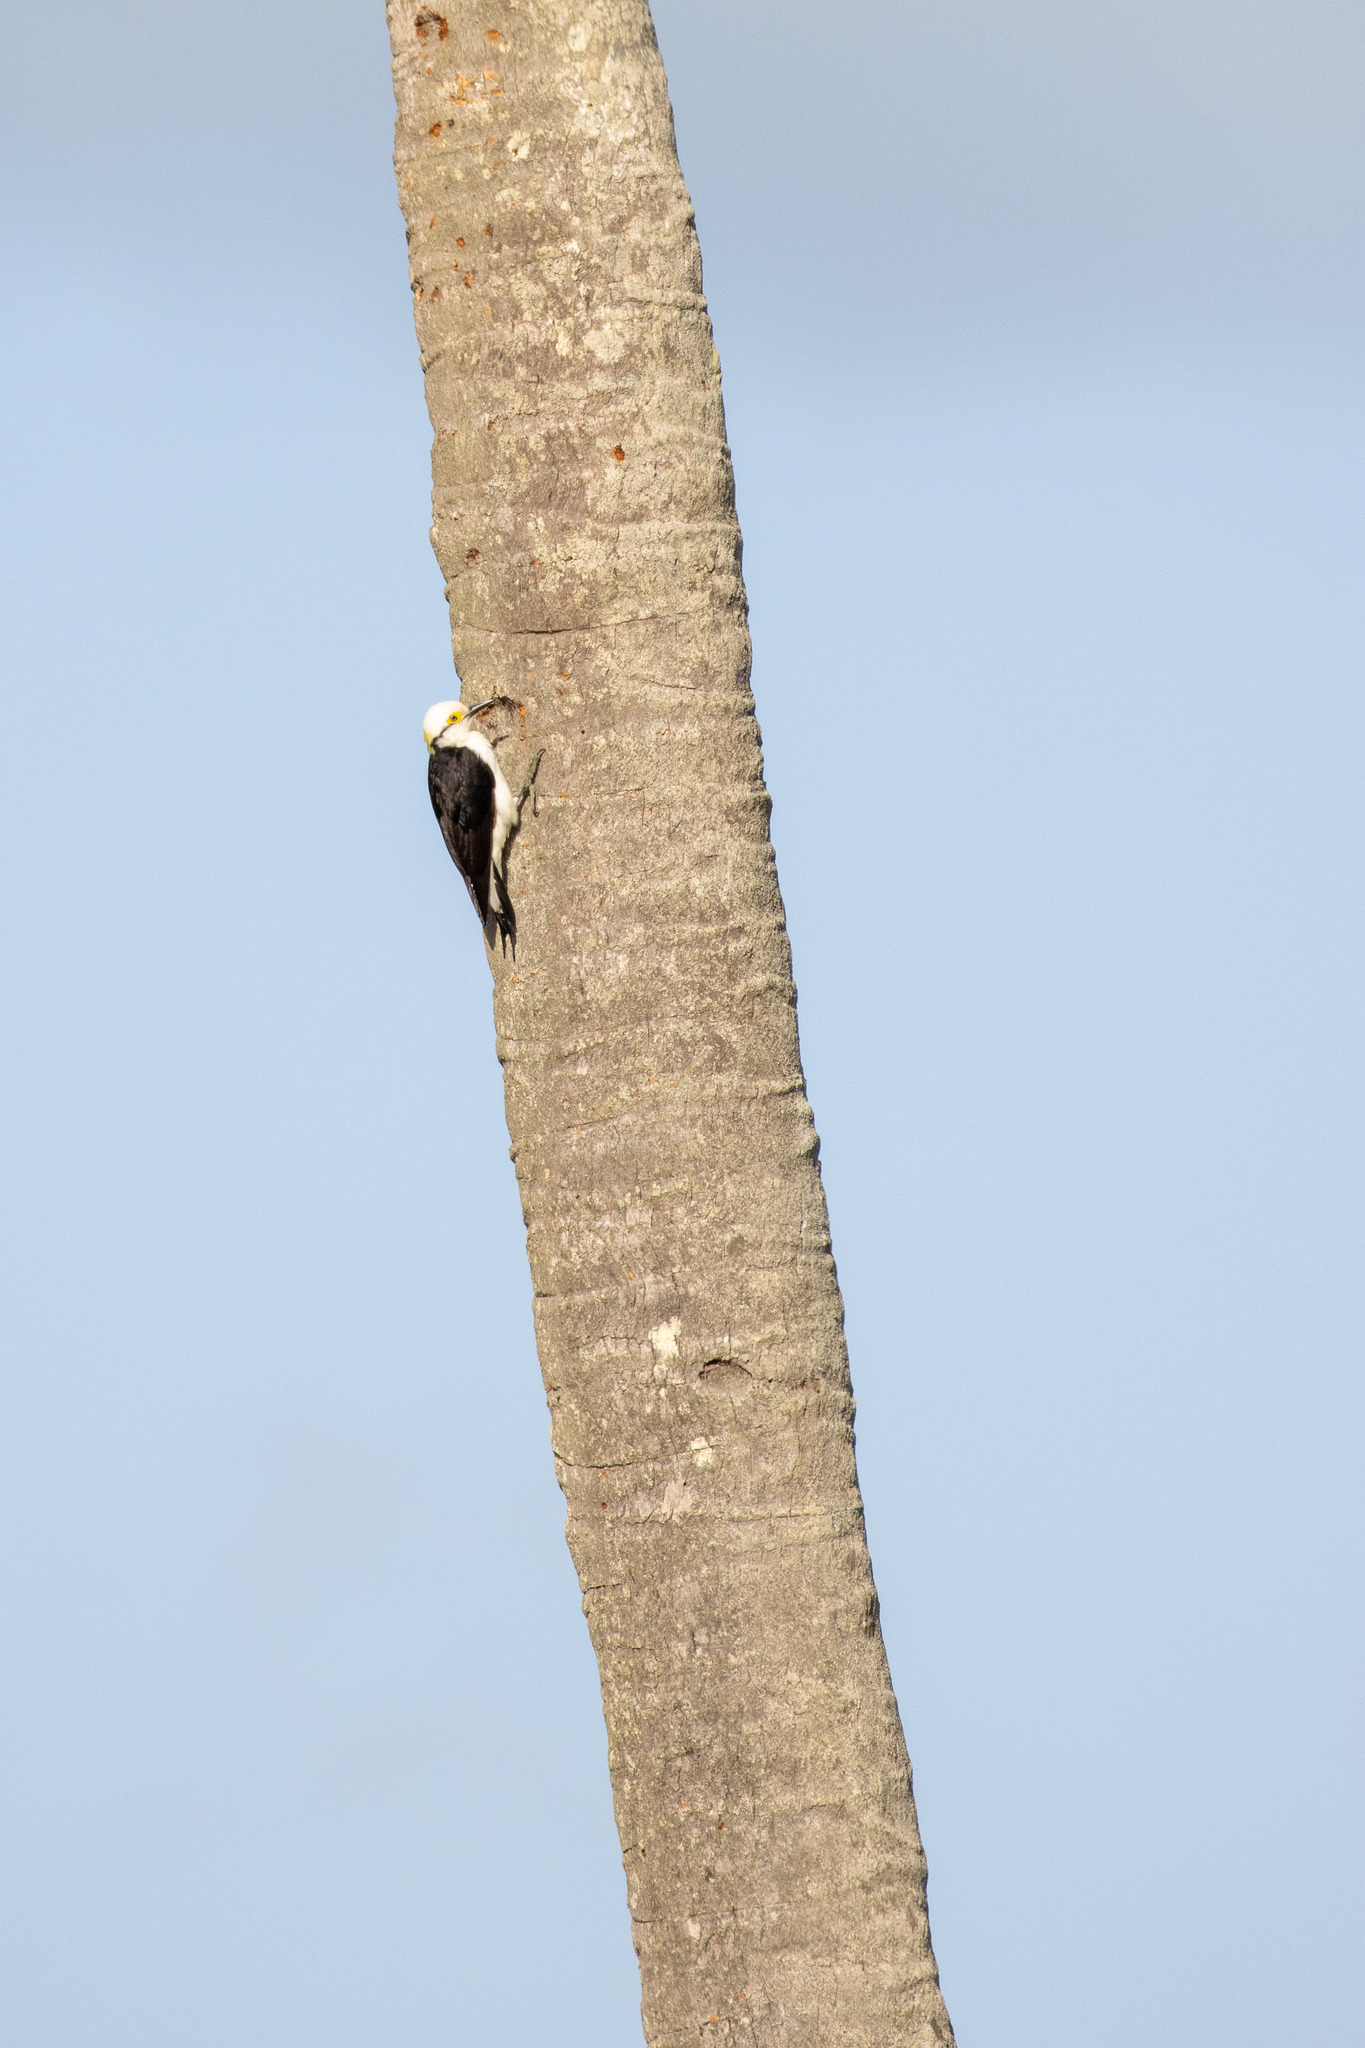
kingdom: Animalia
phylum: Chordata
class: Aves
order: Piciformes
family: Picidae
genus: Melanerpes
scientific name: Melanerpes candidus
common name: White woodpecker
